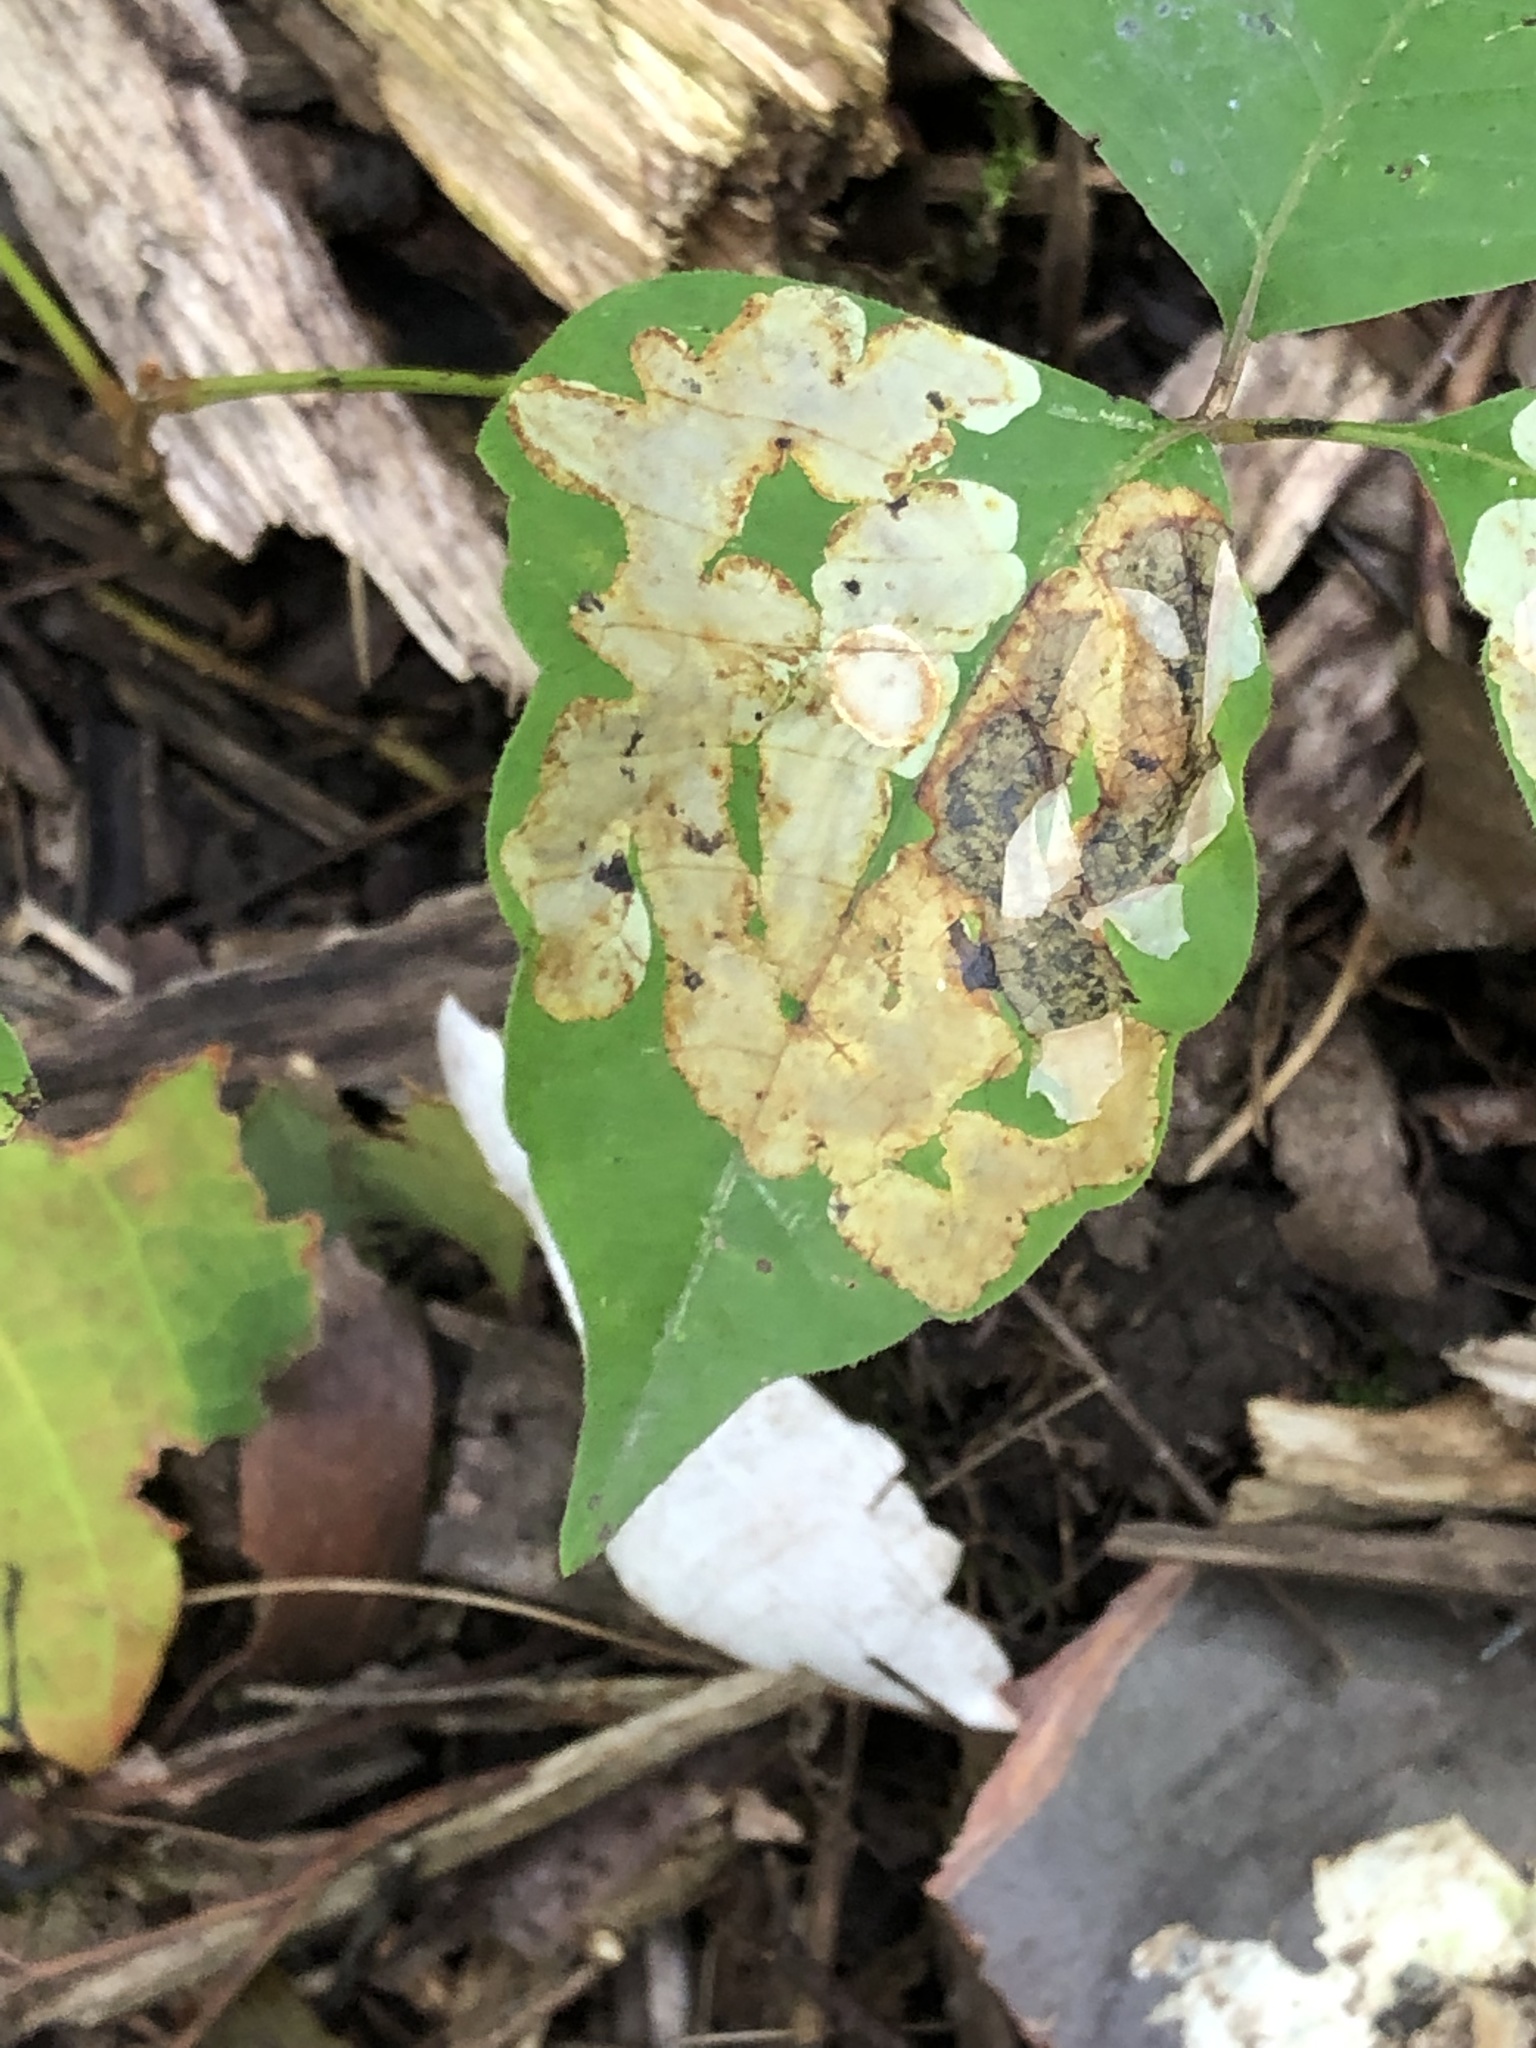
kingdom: Animalia
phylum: Arthropoda
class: Insecta
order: Lepidoptera
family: Gracillariidae
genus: Cameraria
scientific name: Cameraria guttifinitella
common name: Poison ivy leaf-miner moth
